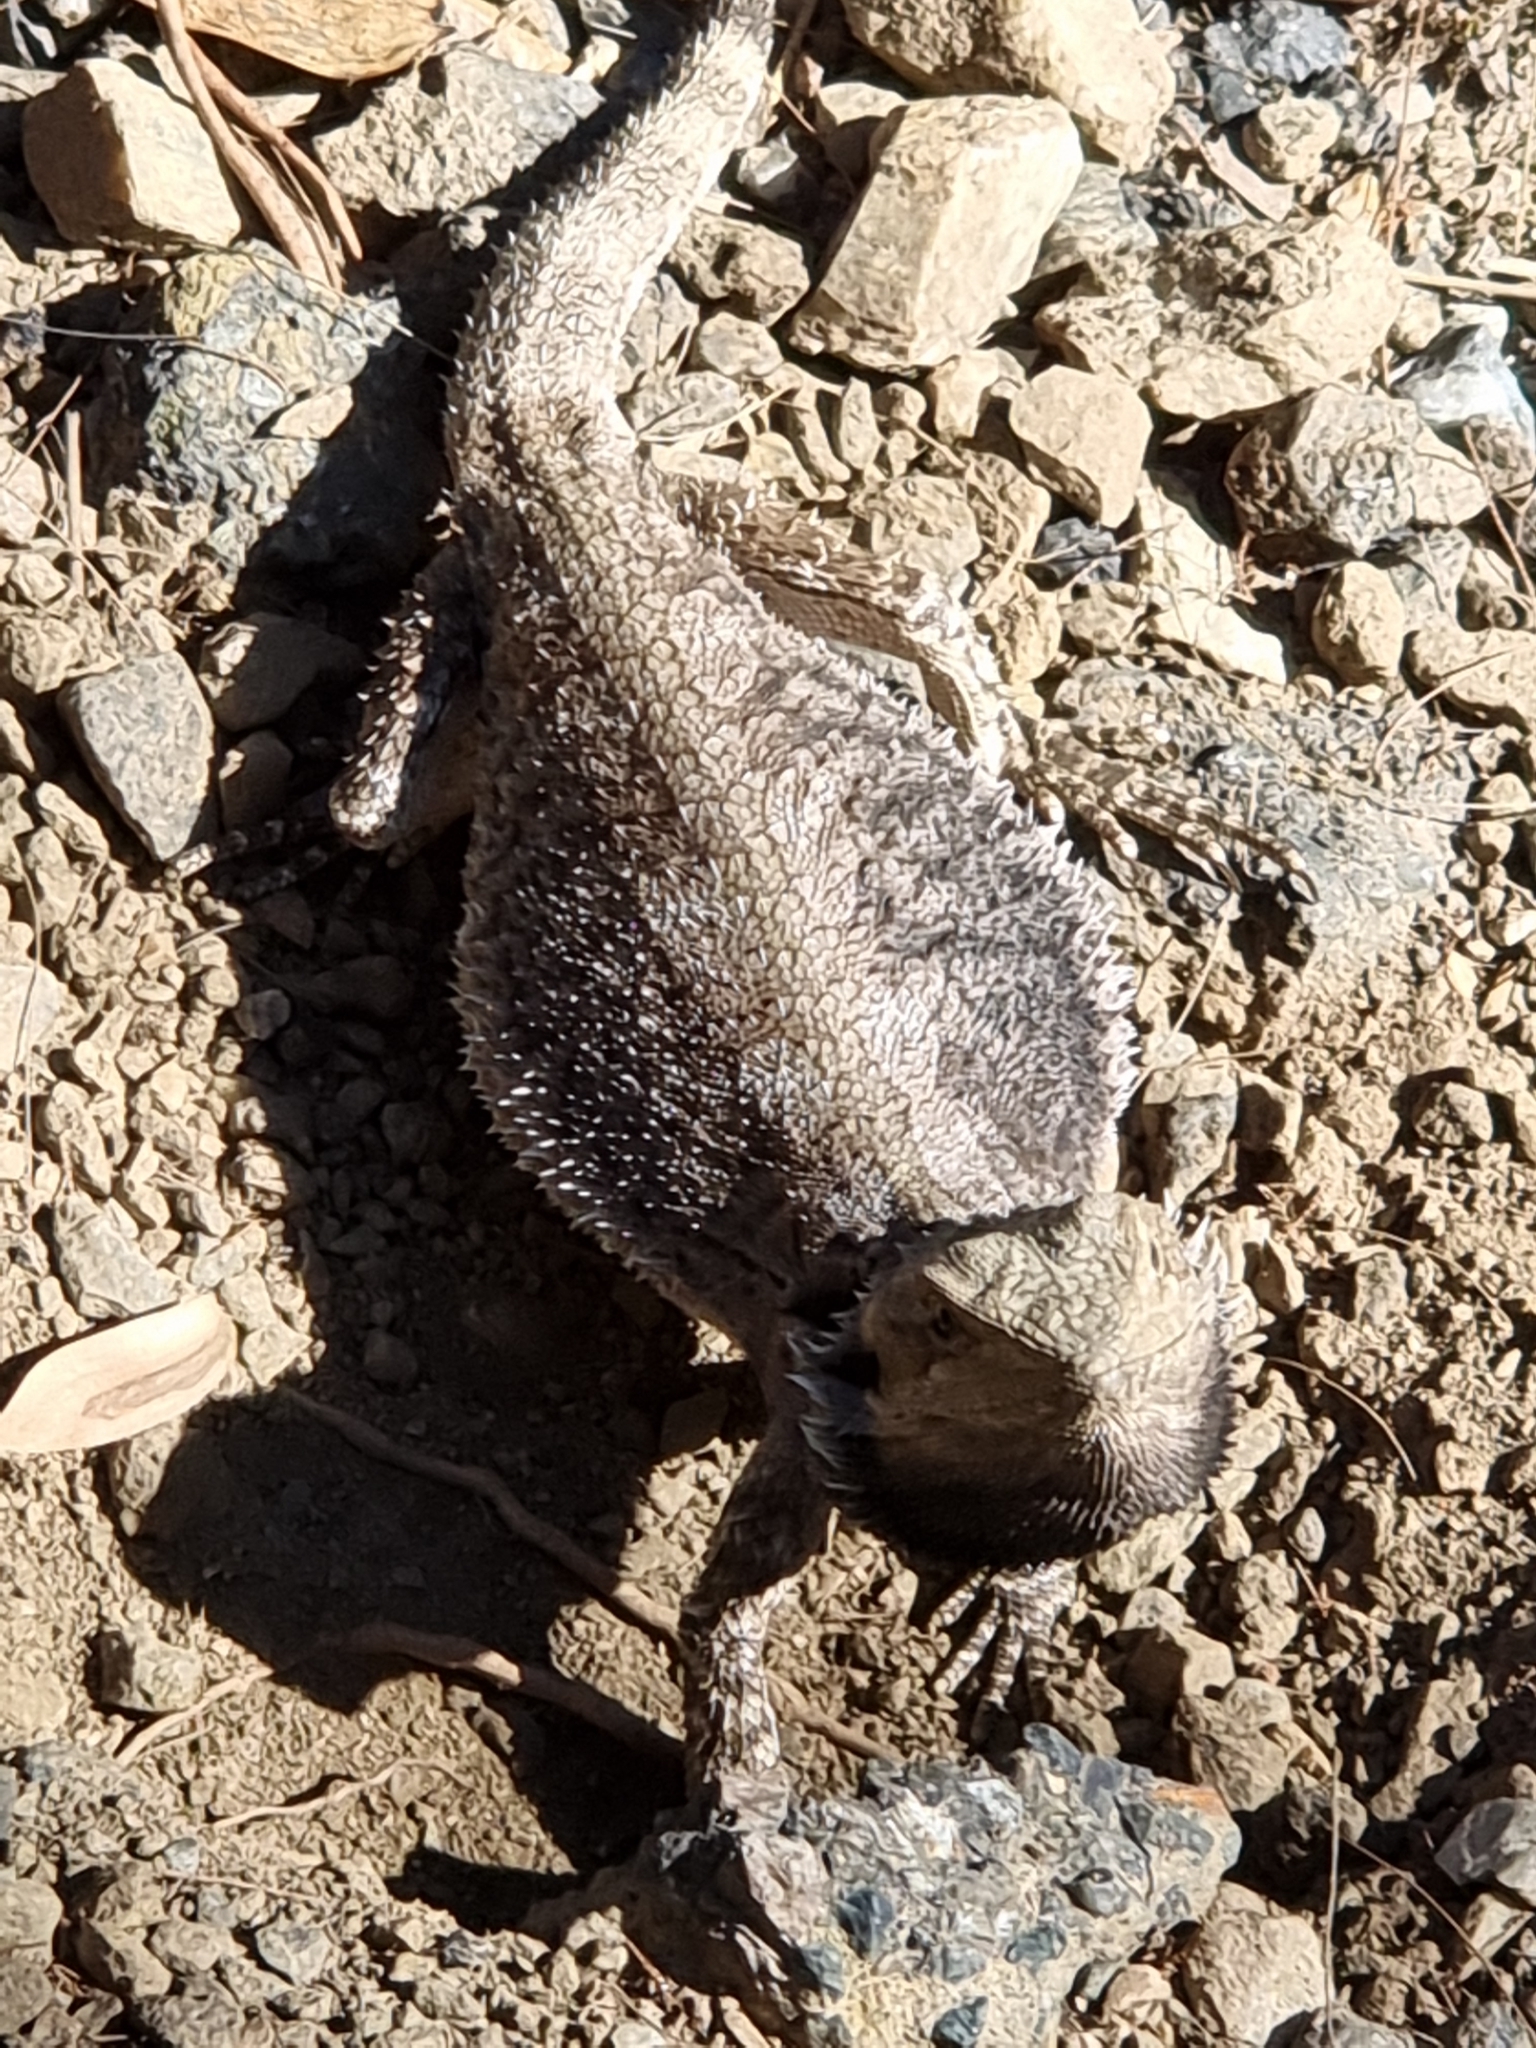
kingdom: Animalia
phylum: Chordata
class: Squamata
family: Agamidae
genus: Pogona
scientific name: Pogona barbata
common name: Bearded dragon
